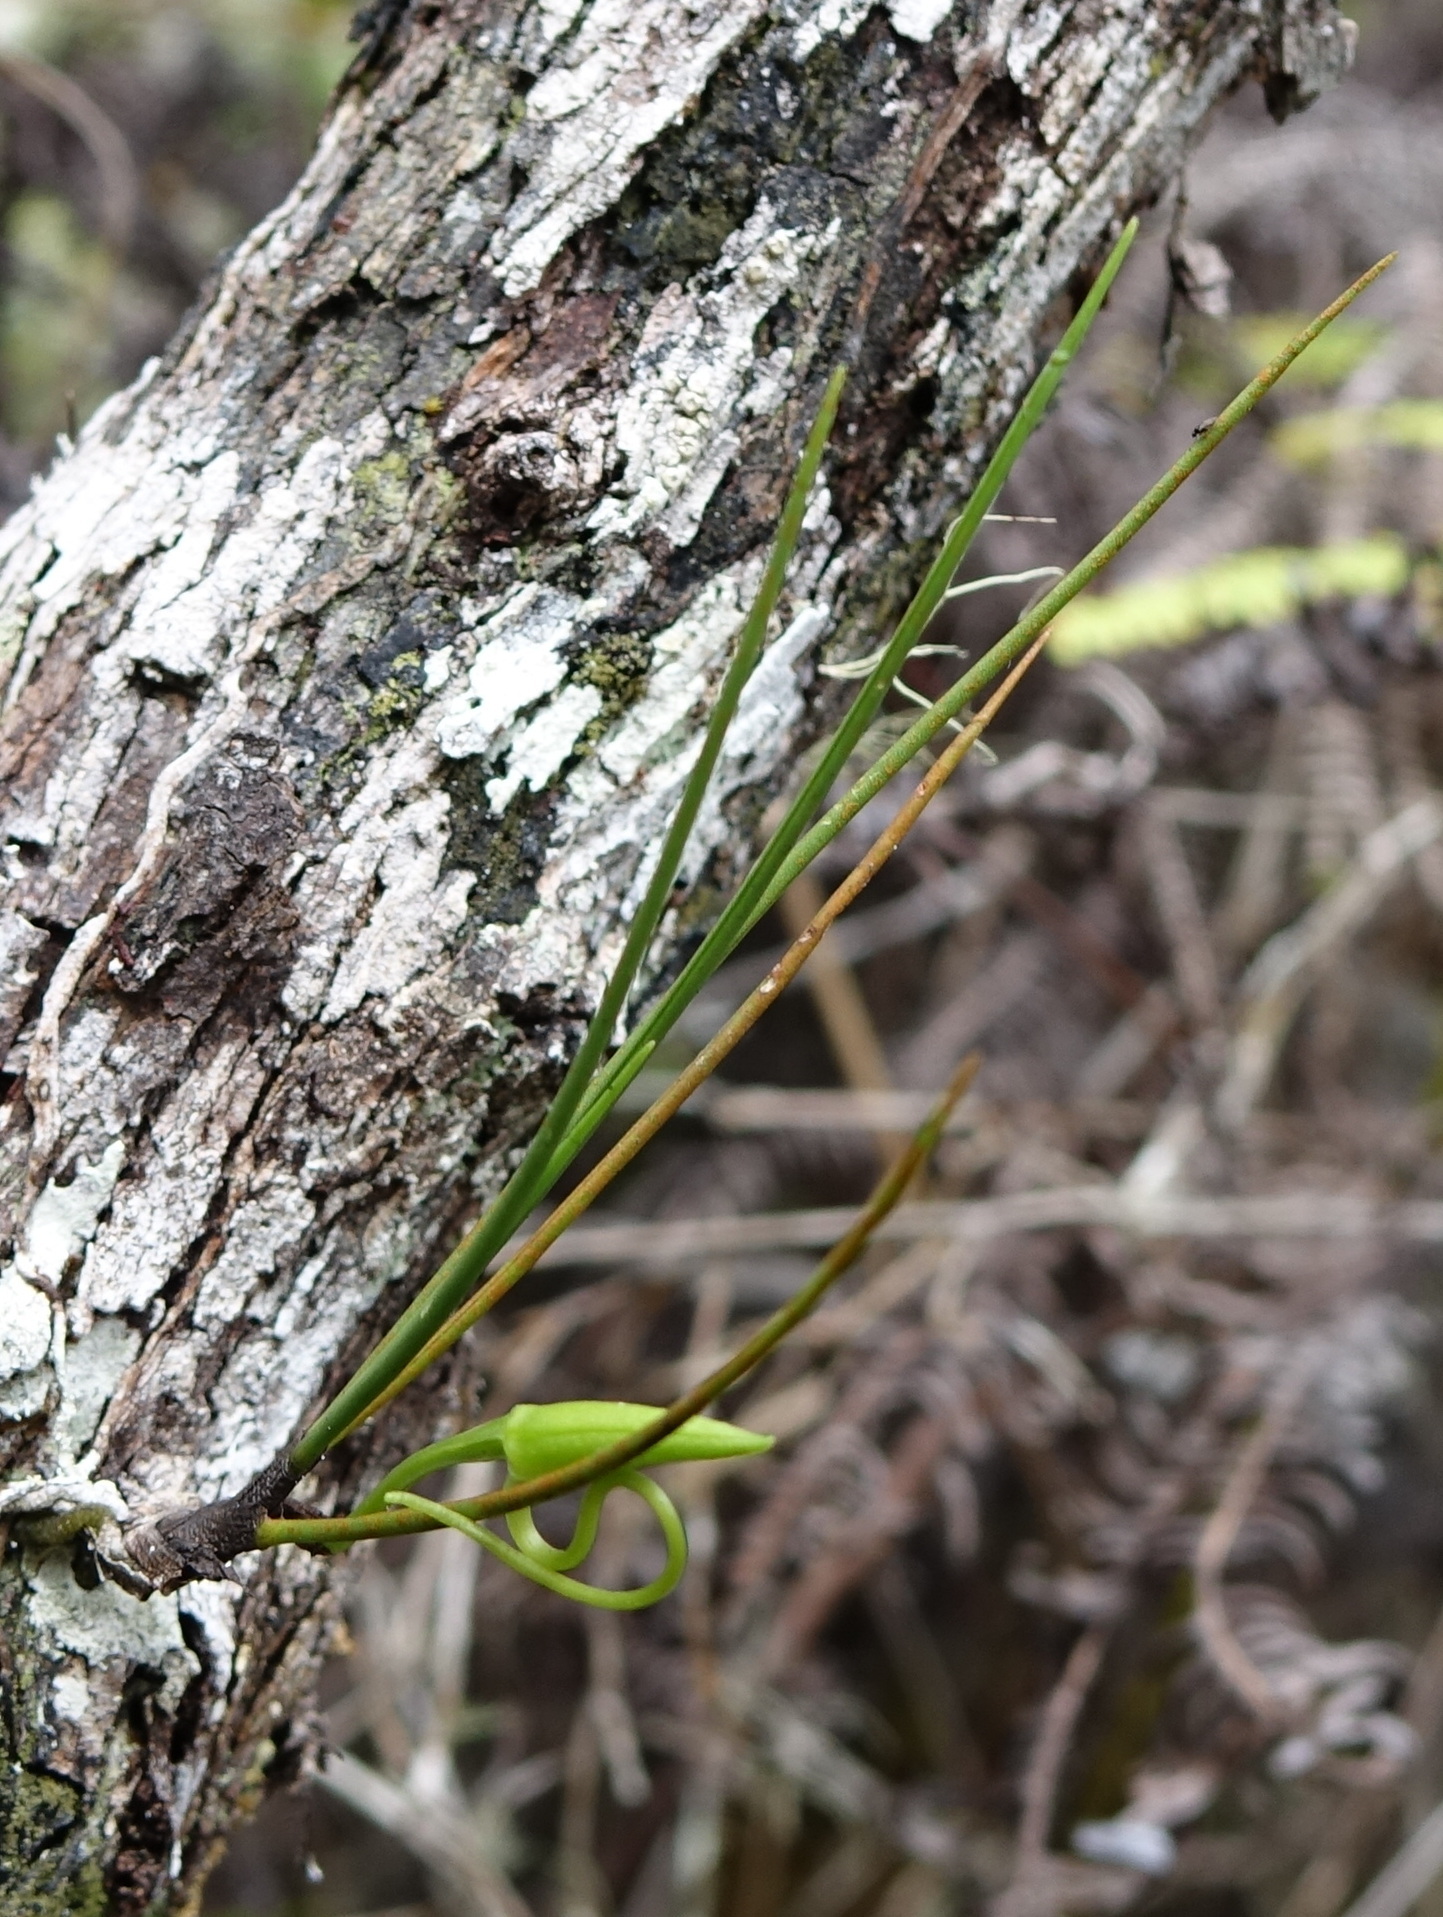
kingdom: Plantae
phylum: Tracheophyta
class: Liliopsida
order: Asparagales
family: Orchidaceae
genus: Angraecum
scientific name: Angraecum linearifolium
